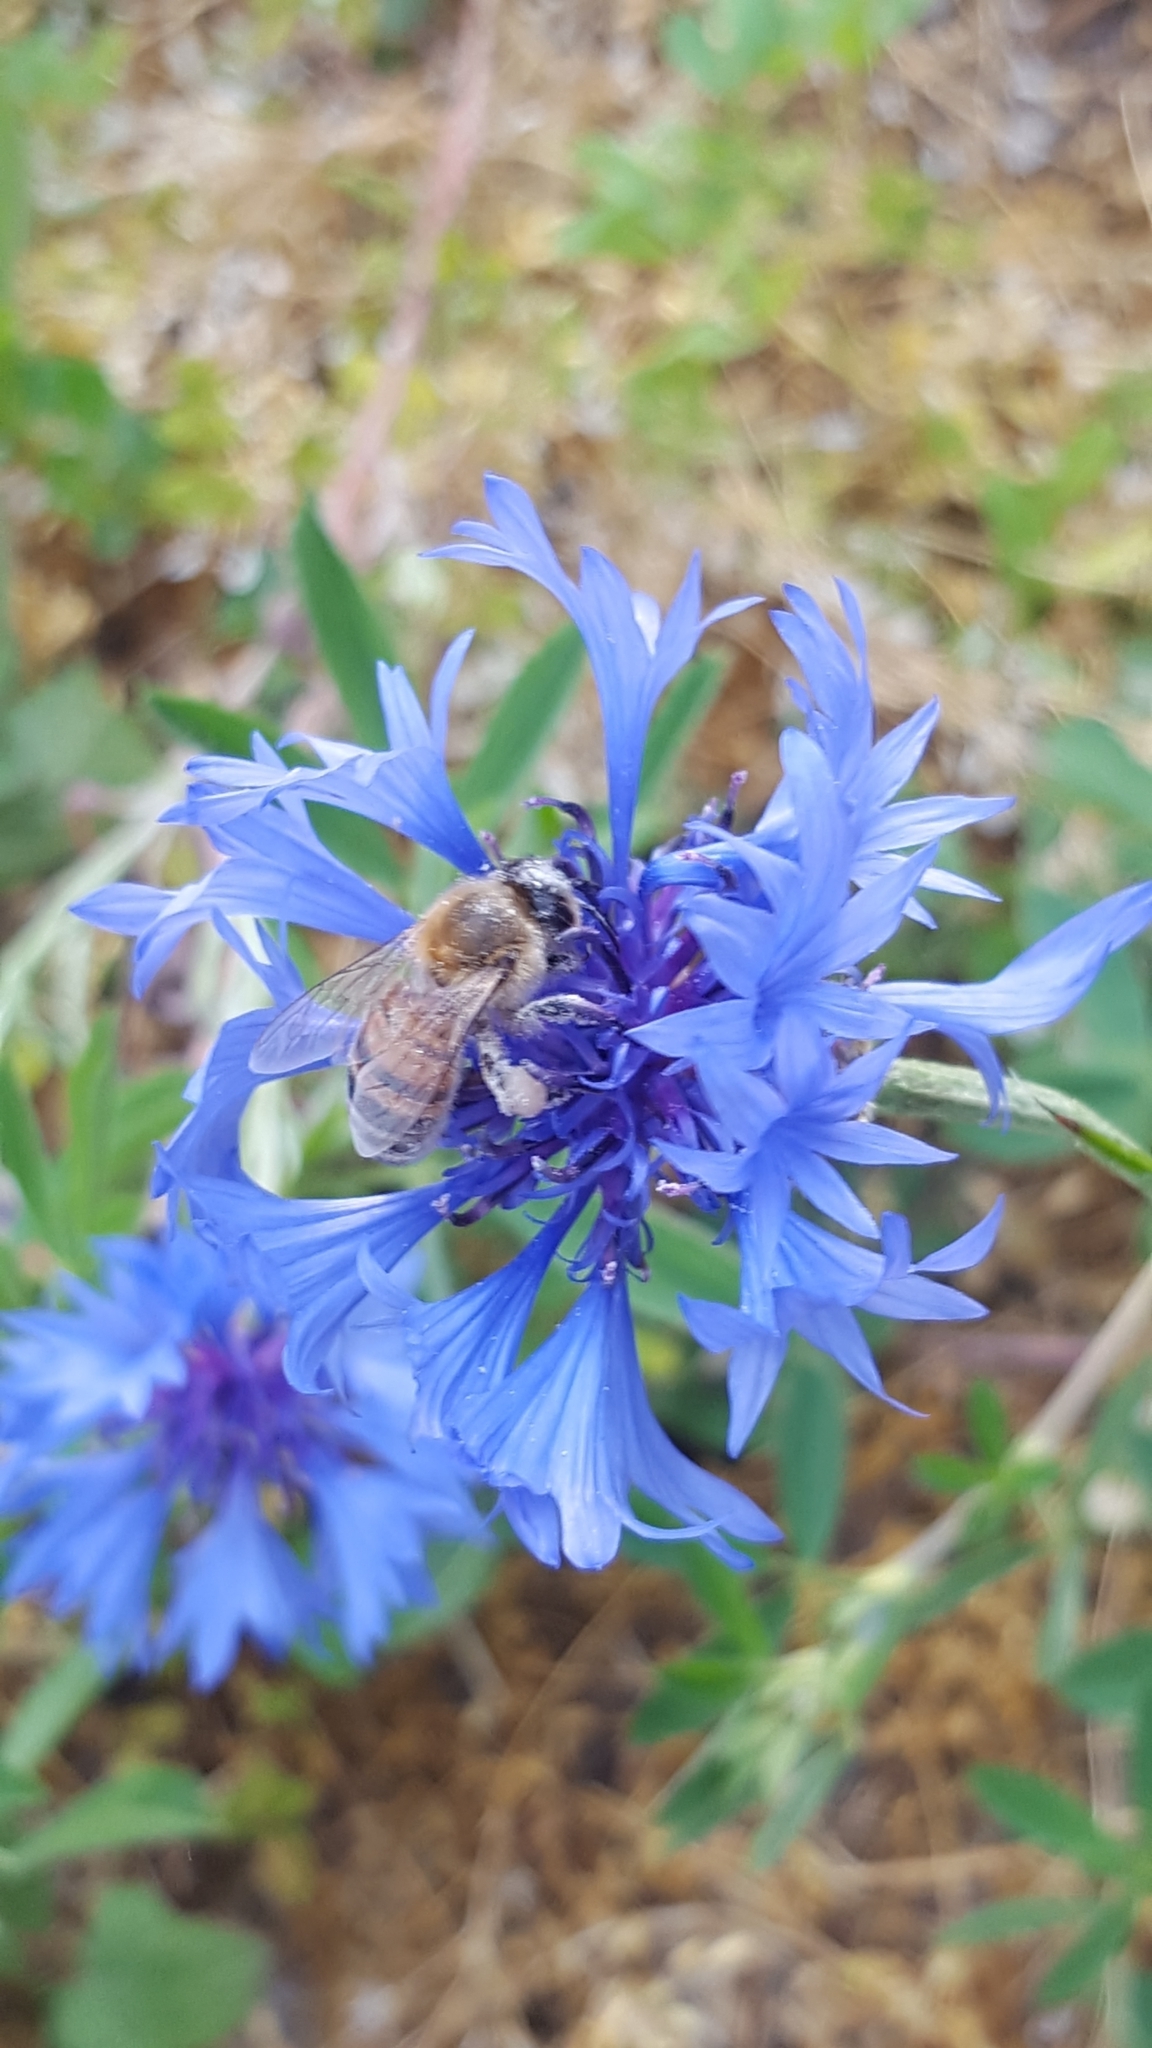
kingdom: Plantae
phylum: Tracheophyta
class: Magnoliopsida
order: Asterales
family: Asteraceae
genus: Centaurea
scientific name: Centaurea cyanus
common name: Cornflower
